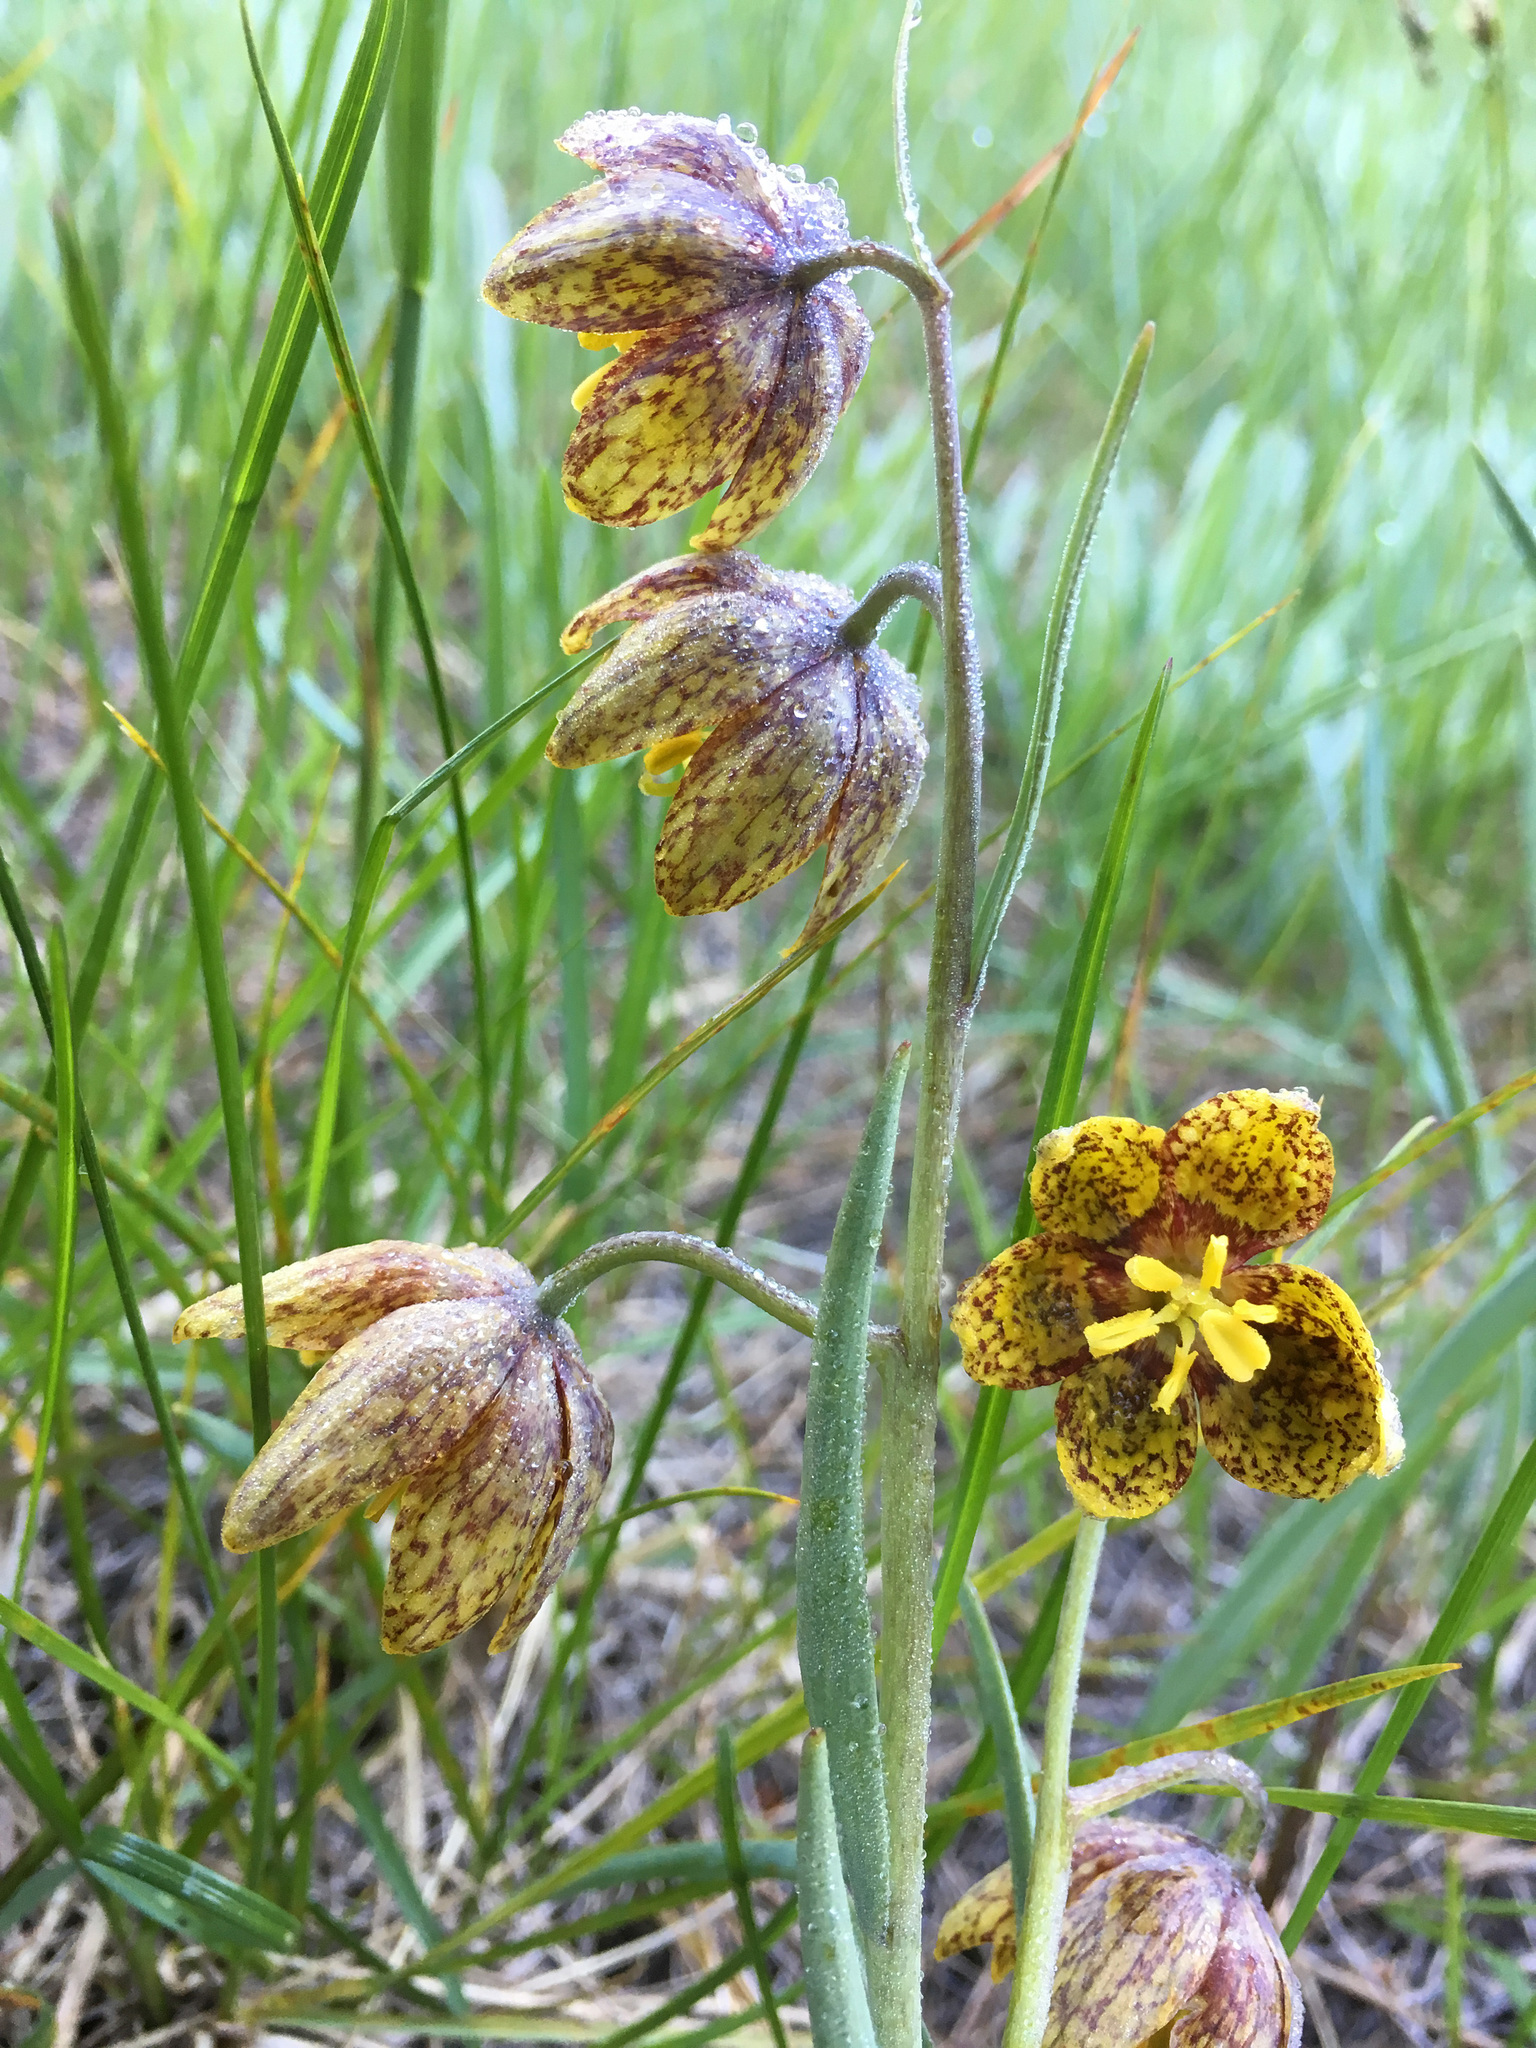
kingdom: Plantae
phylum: Tracheophyta
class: Liliopsida
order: Liliales
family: Liliaceae
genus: Fritillaria
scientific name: Fritillaria atropurpurea
